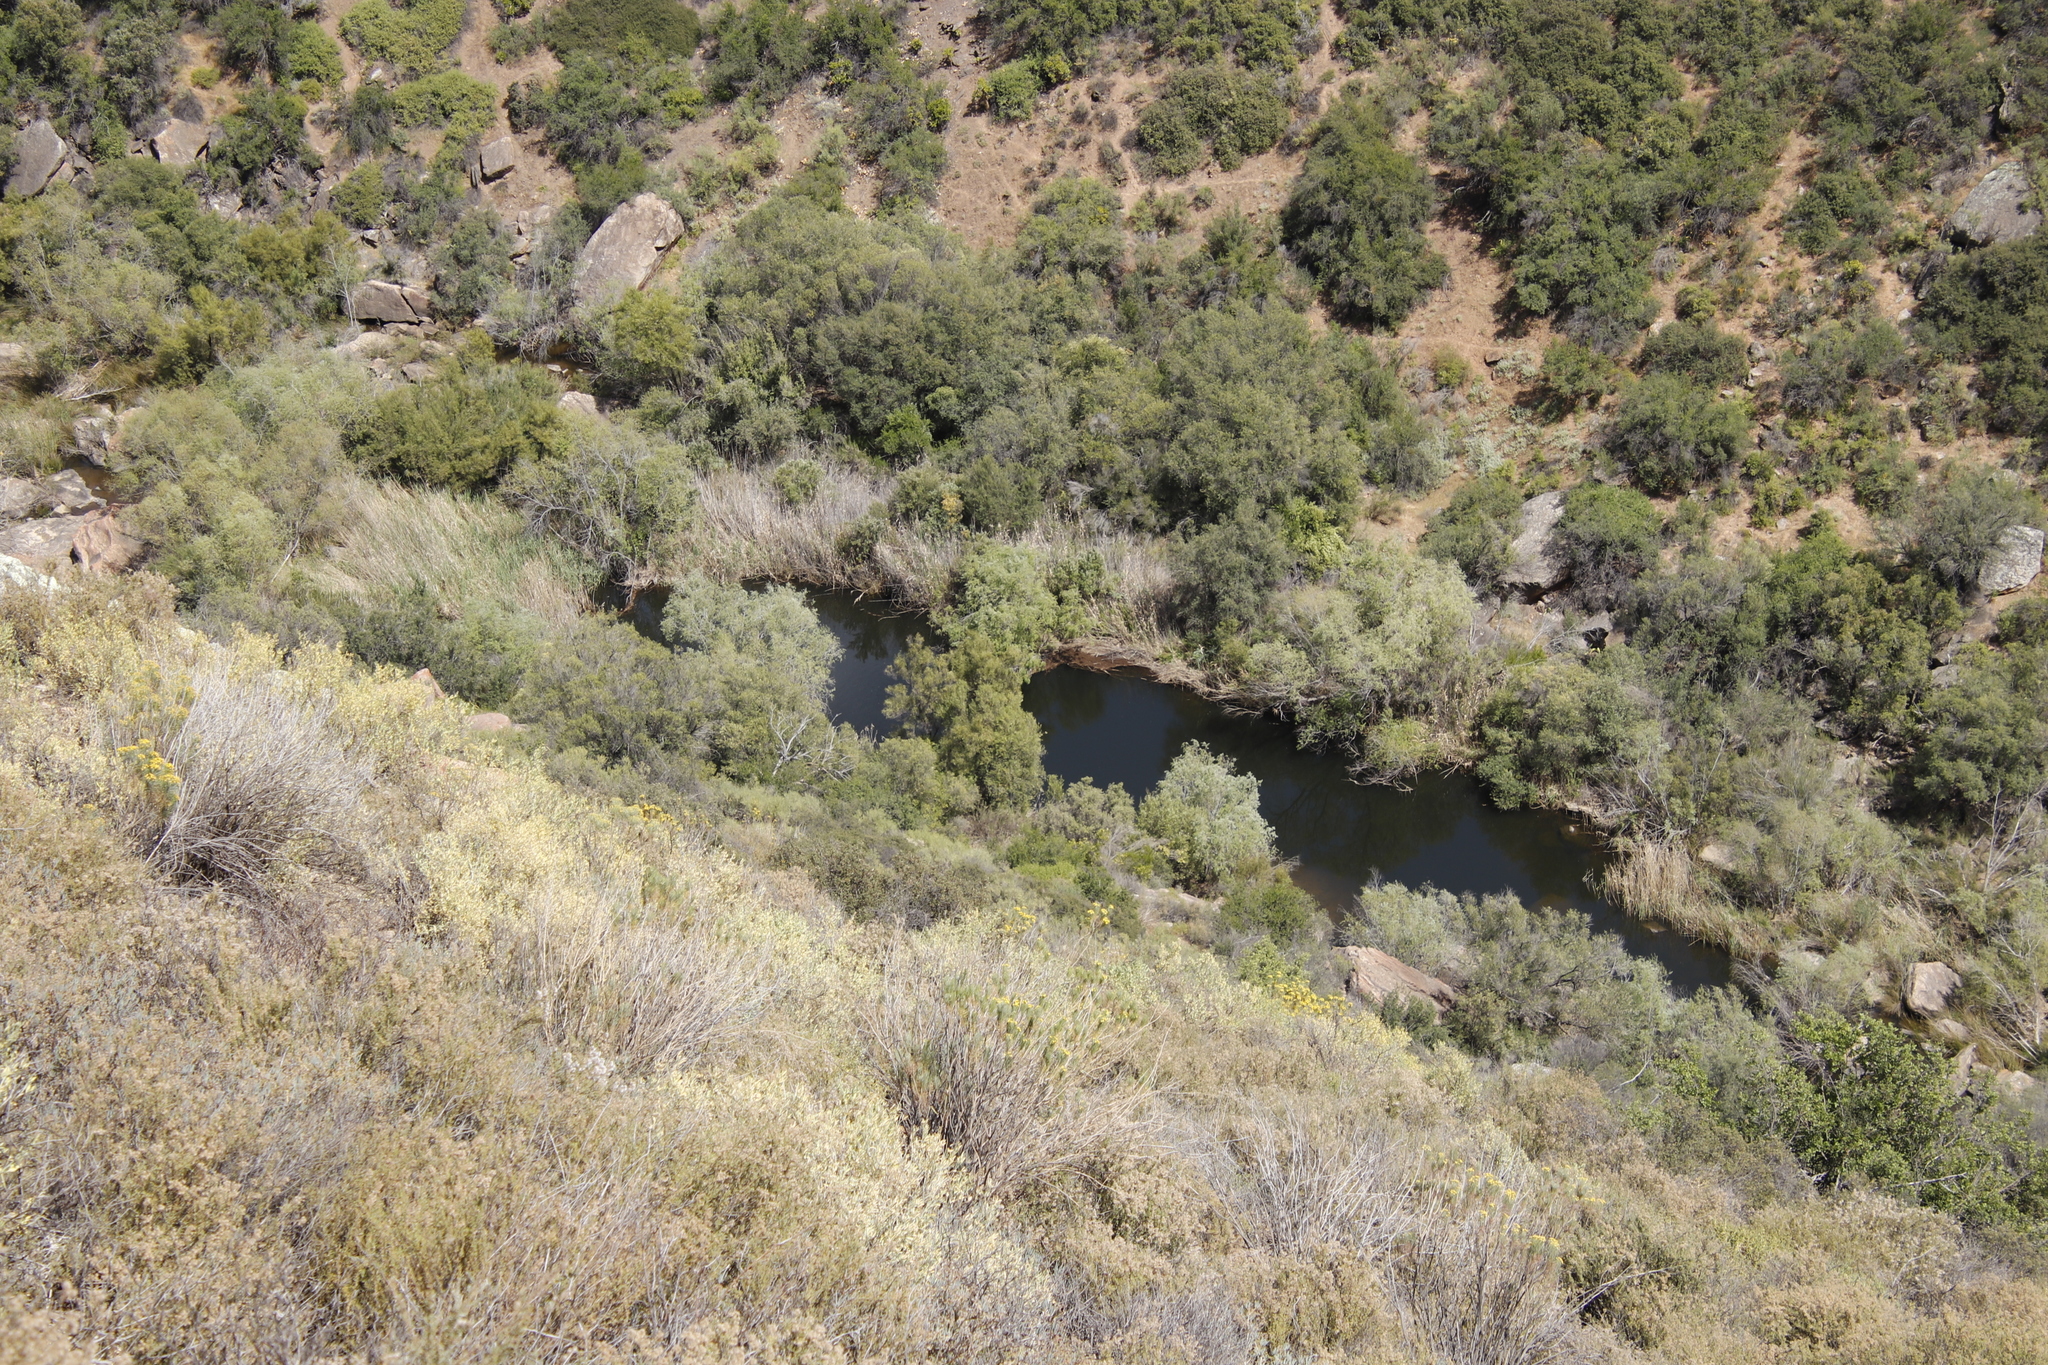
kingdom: Plantae
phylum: Tracheophyta
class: Liliopsida
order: Poales
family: Poaceae
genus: Phragmites
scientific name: Phragmites australis
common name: Common reed
